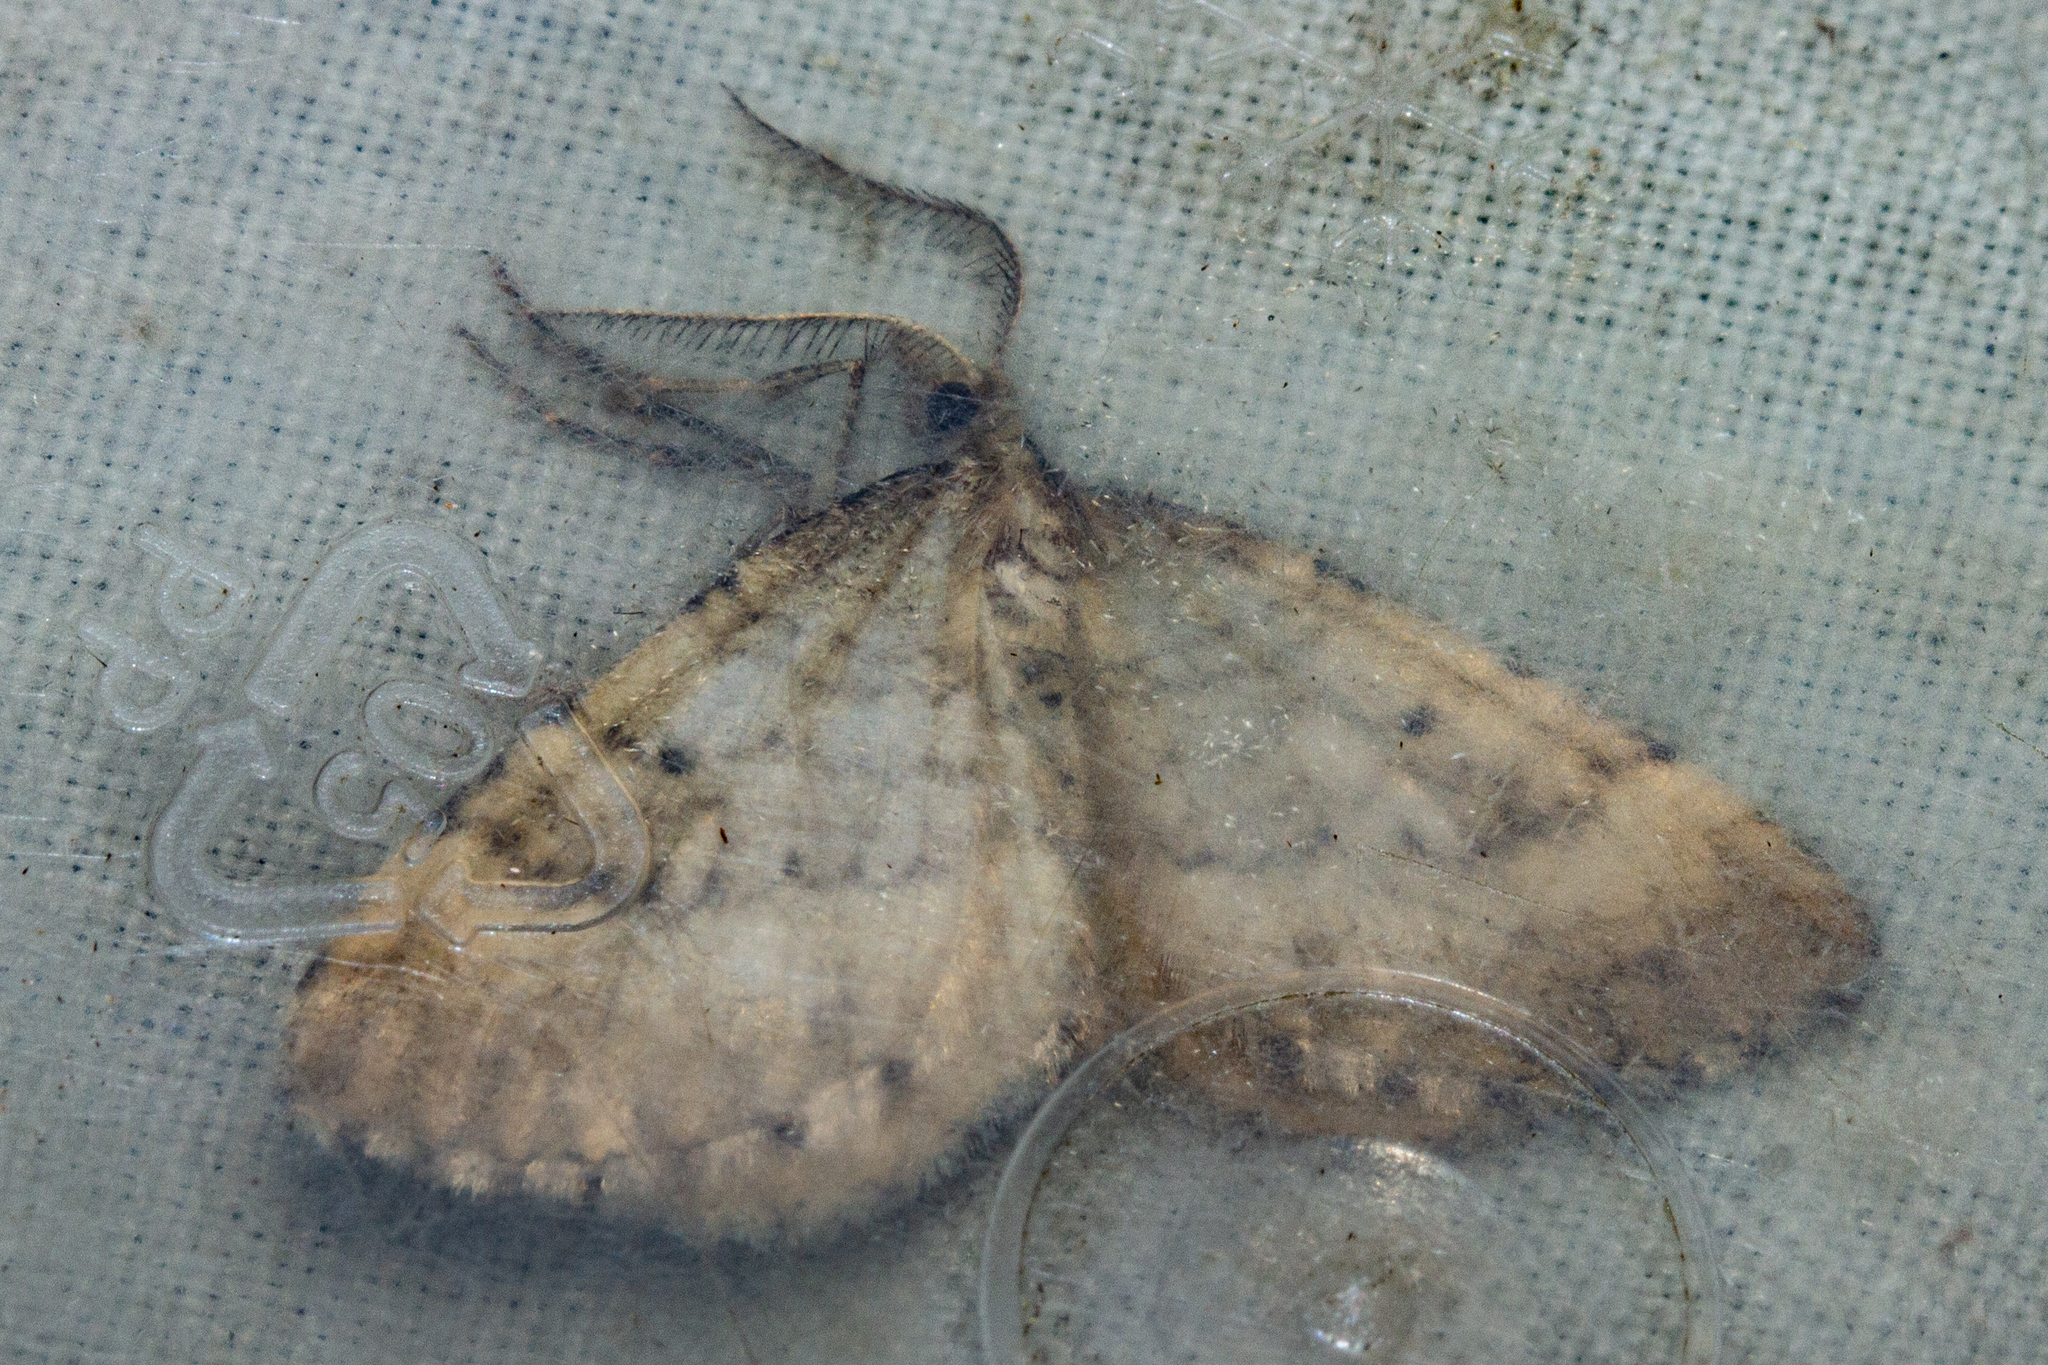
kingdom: Animalia
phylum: Arthropoda
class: Insecta
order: Lepidoptera
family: Geometridae
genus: Asaphodes
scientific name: Asaphodes aegrota
